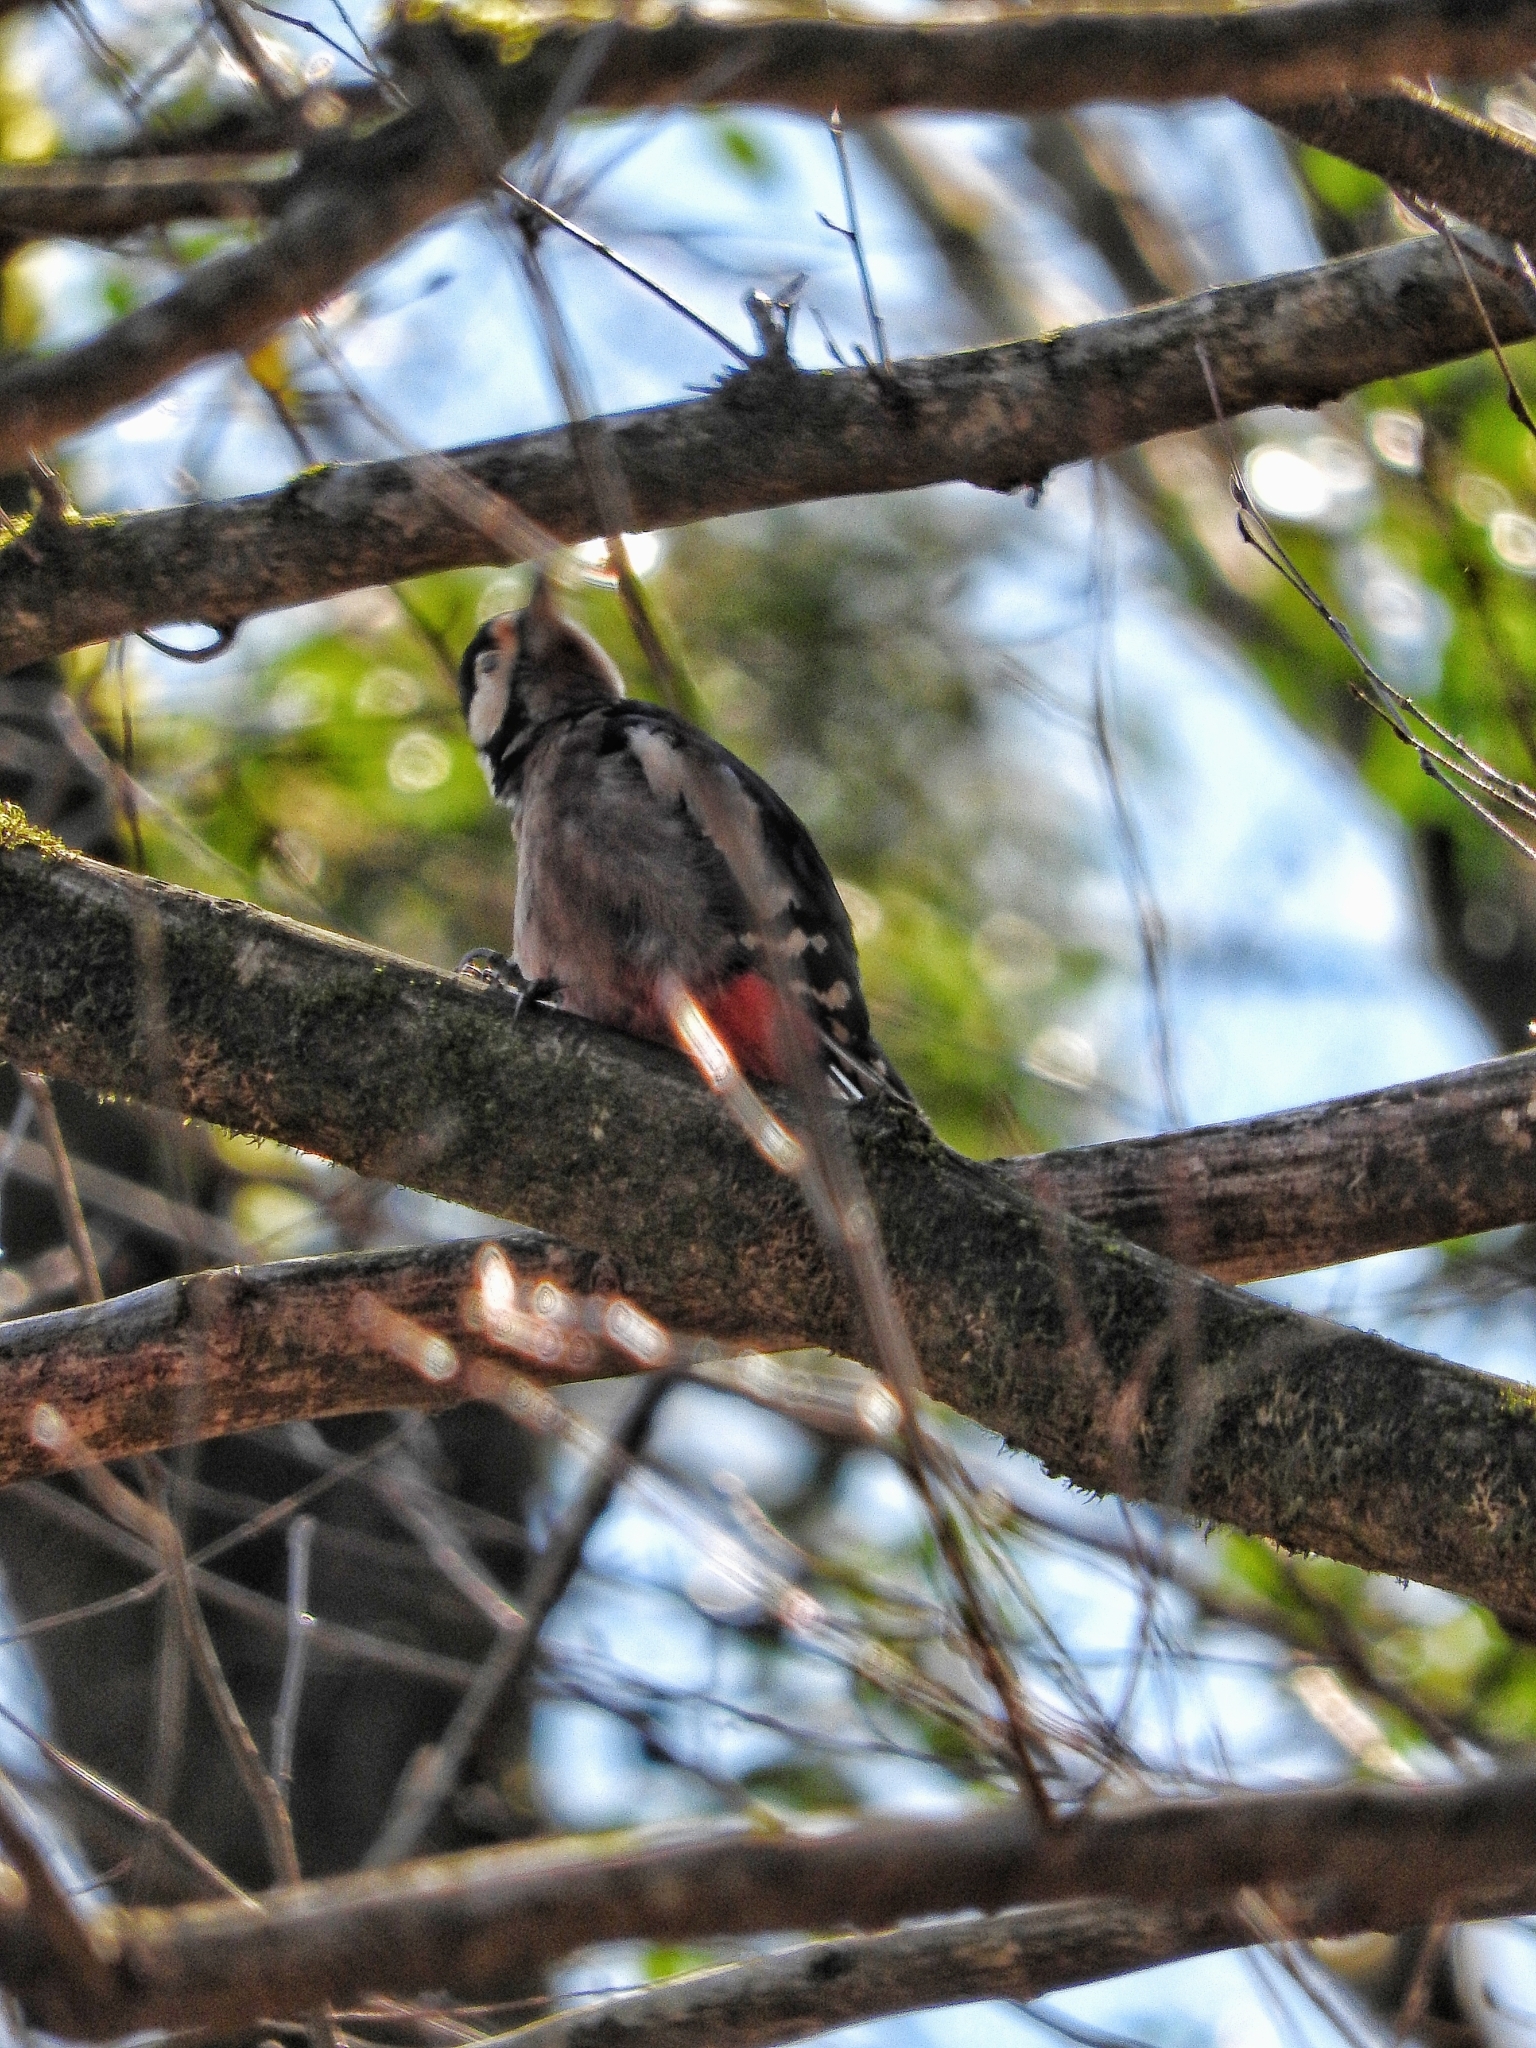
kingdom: Animalia
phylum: Chordata
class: Aves
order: Piciformes
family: Picidae
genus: Dendrocopos
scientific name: Dendrocopos major
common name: Great spotted woodpecker
